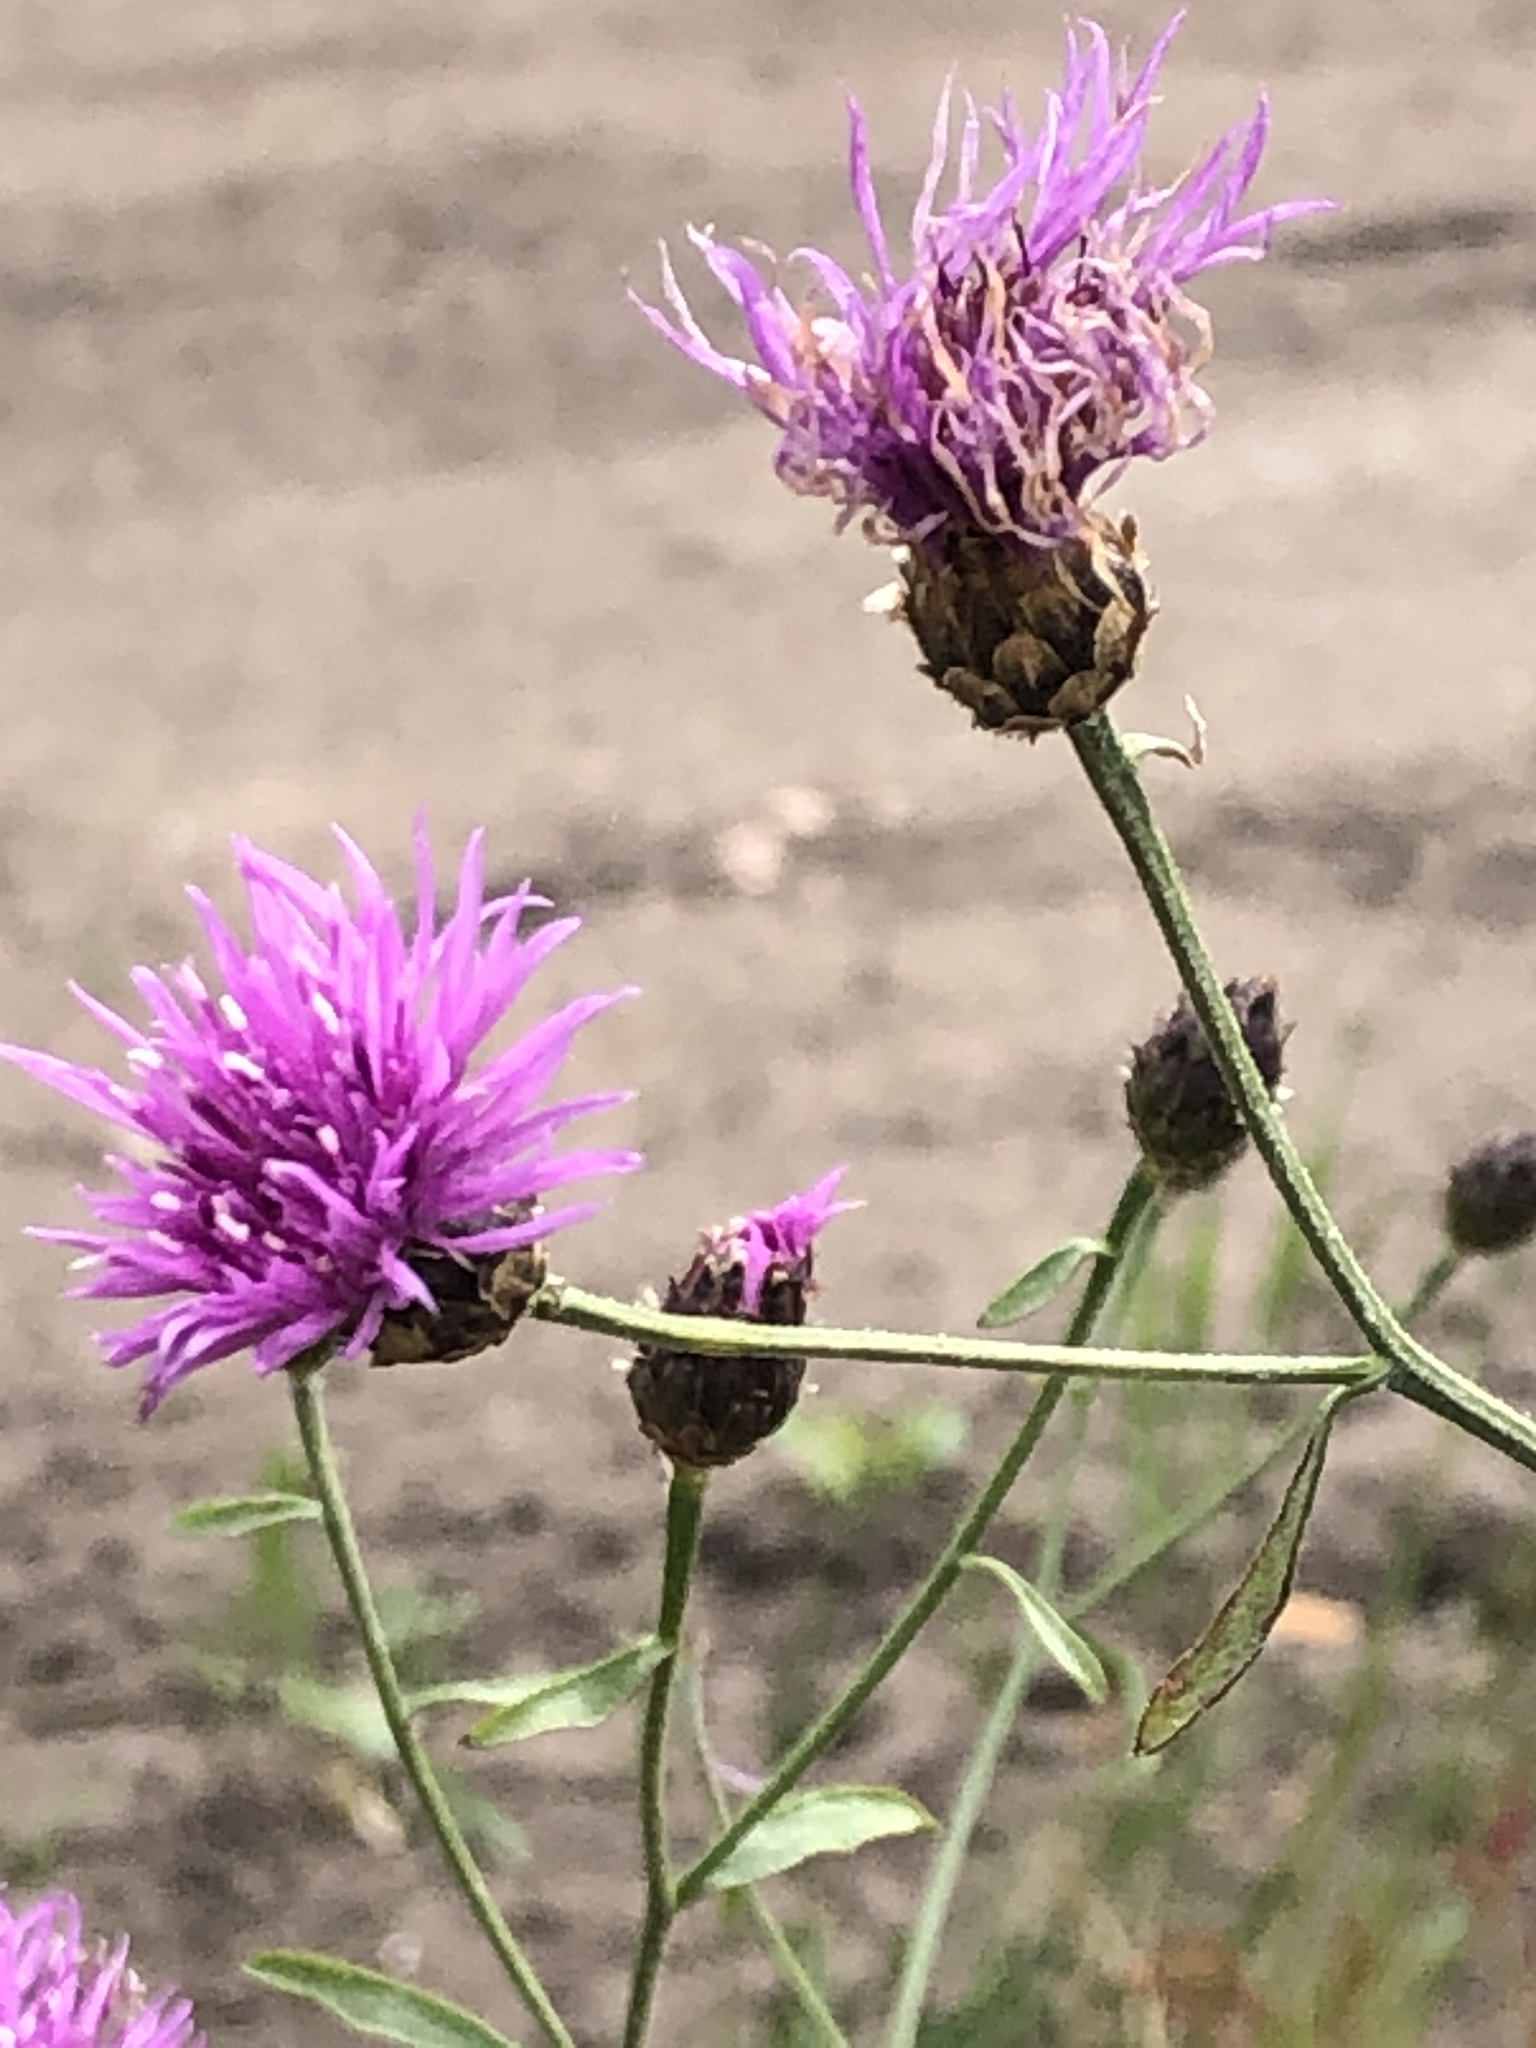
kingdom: Plantae
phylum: Tracheophyta
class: Magnoliopsida
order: Asterales
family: Asteraceae
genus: Centaurea
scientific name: Centaurea jacea
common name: Brown knapweed
